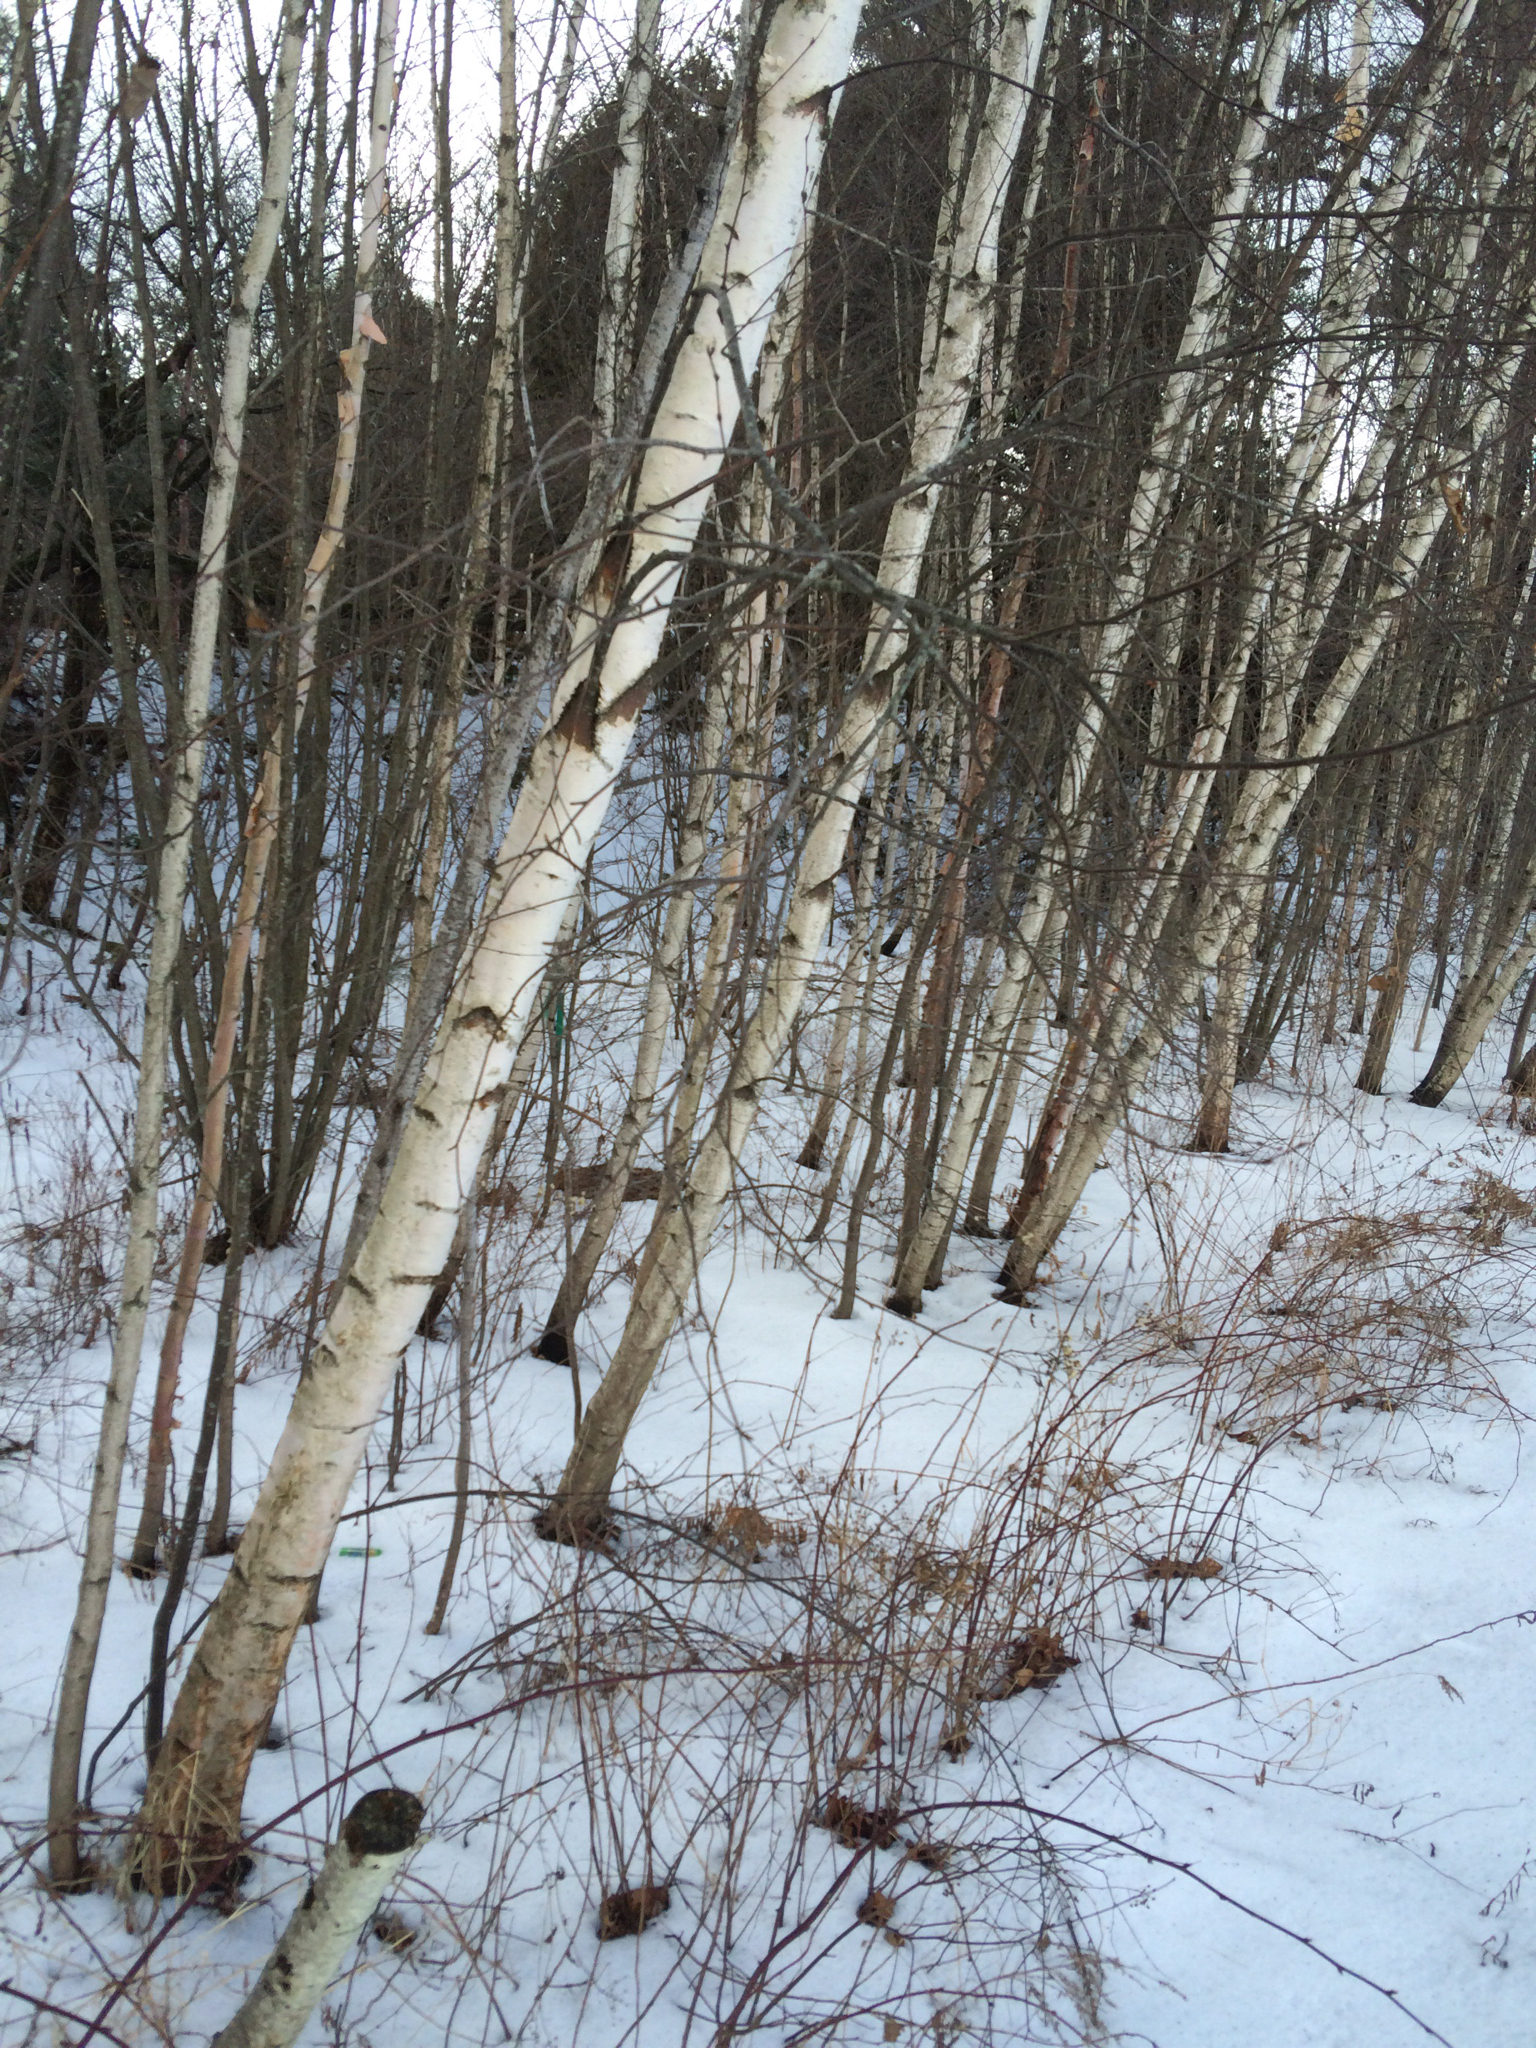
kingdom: Plantae
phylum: Tracheophyta
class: Magnoliopsida
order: Fagales
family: Betulaceae
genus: Betula
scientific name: Betula populifolia
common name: Fire birch
